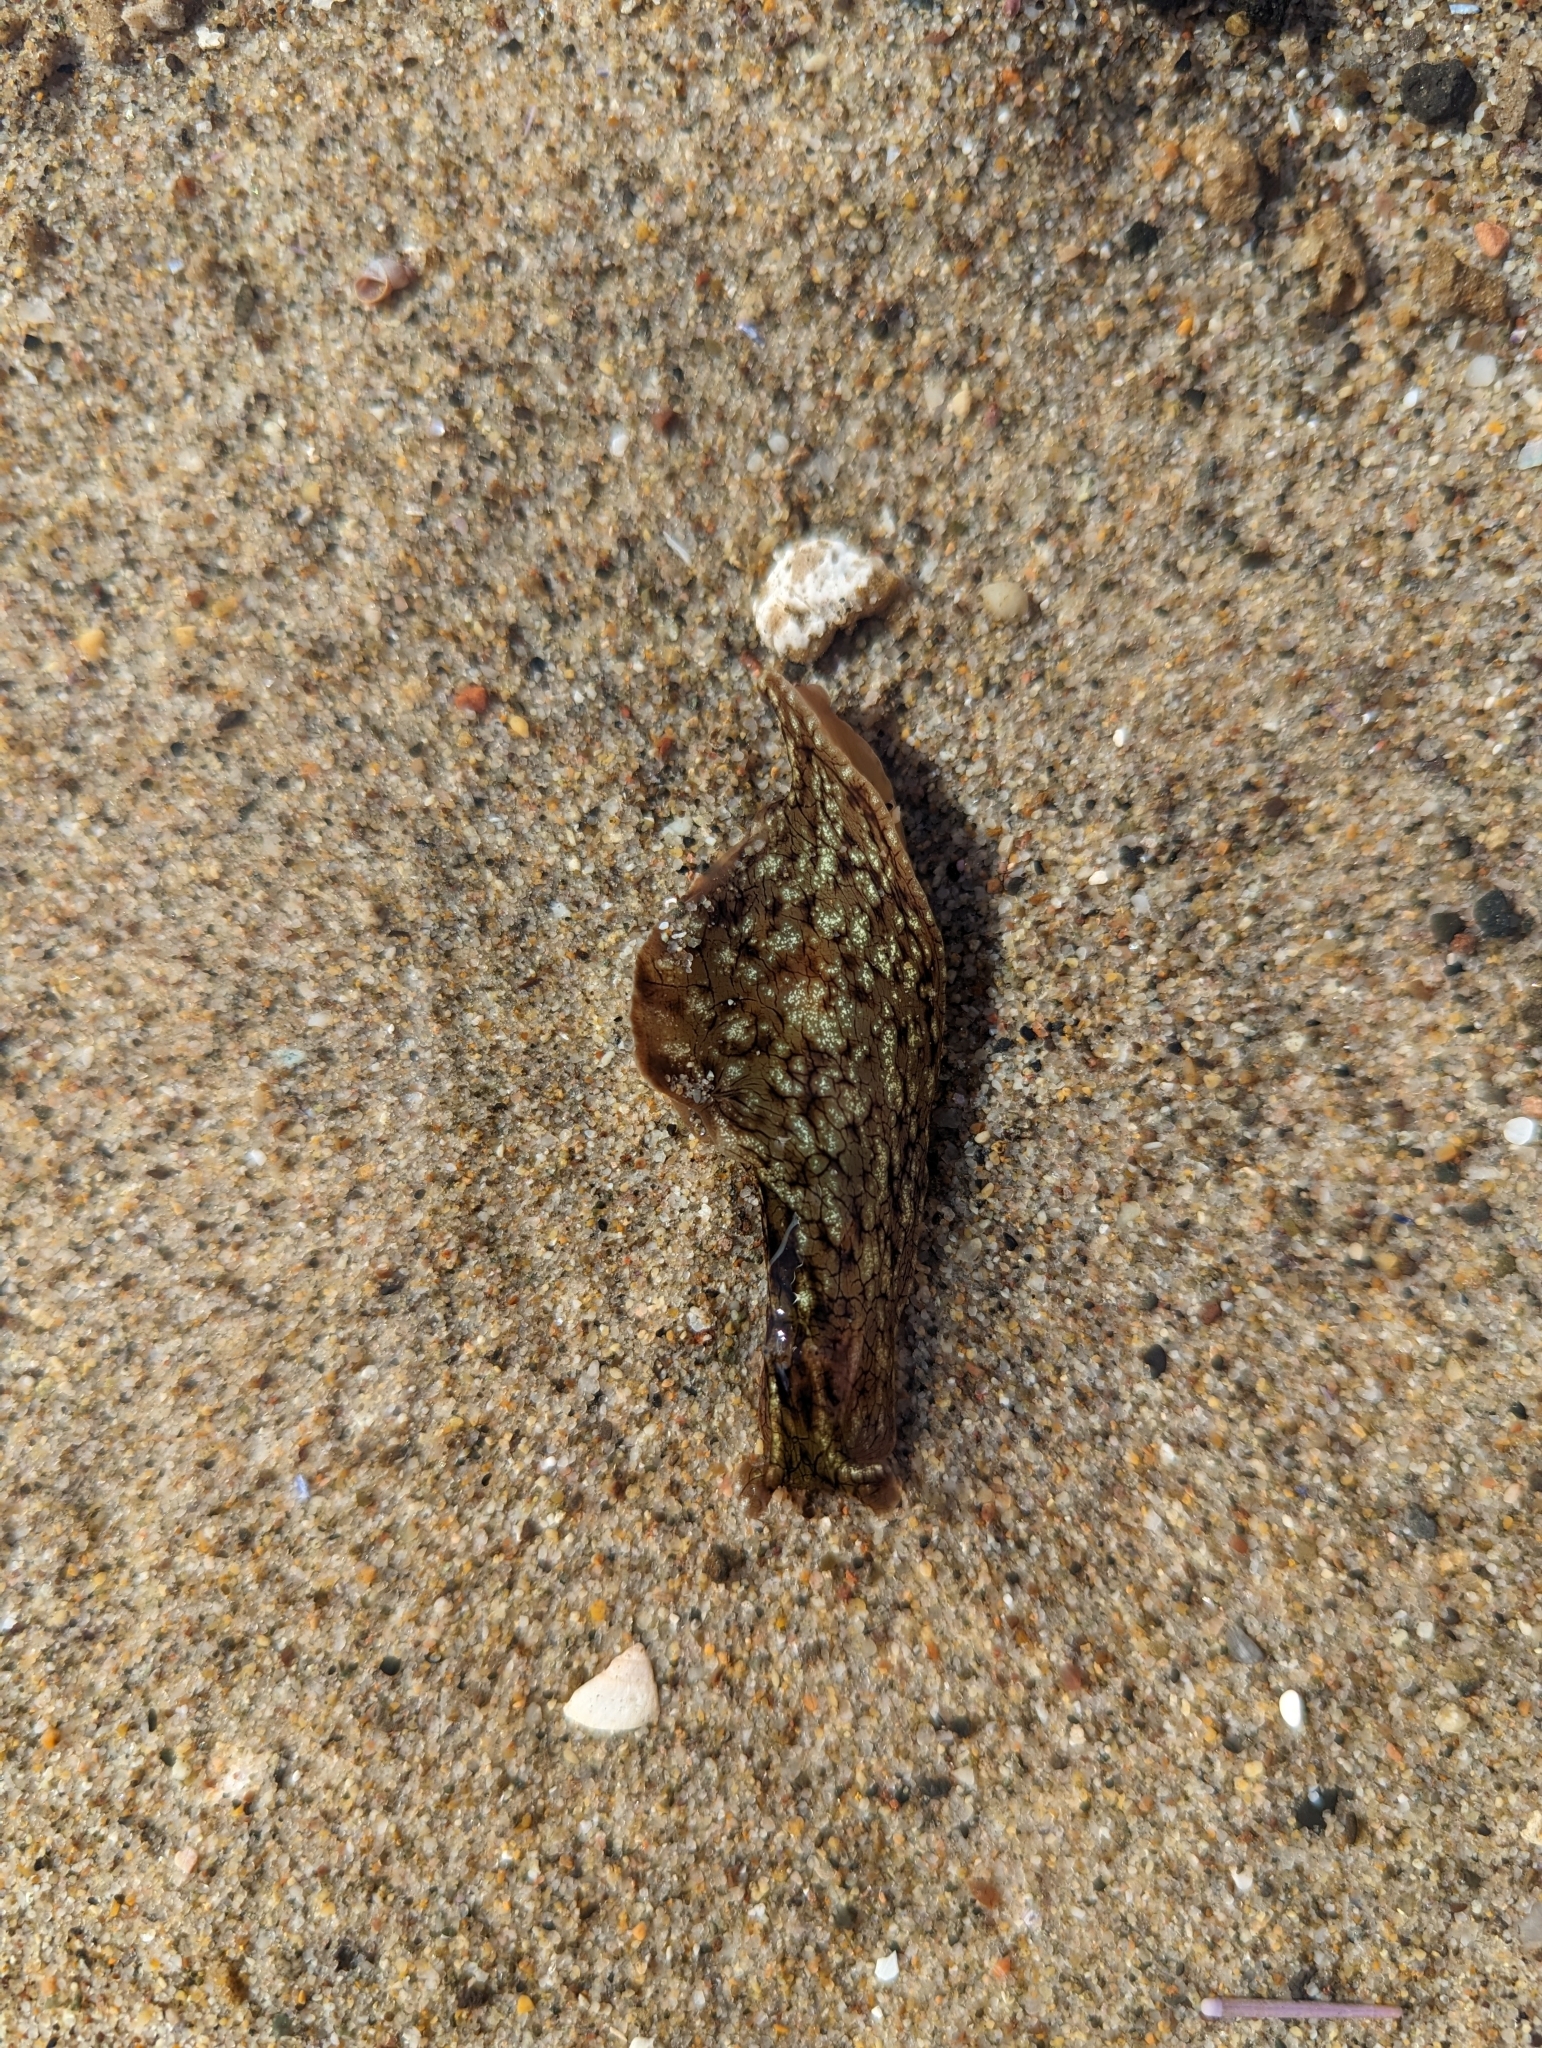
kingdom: Animalia
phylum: Mollusca
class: Gastropoda
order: Aplysiida
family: Aplysiidae
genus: Aplysia
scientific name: Aplysia californica
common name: California seahare
